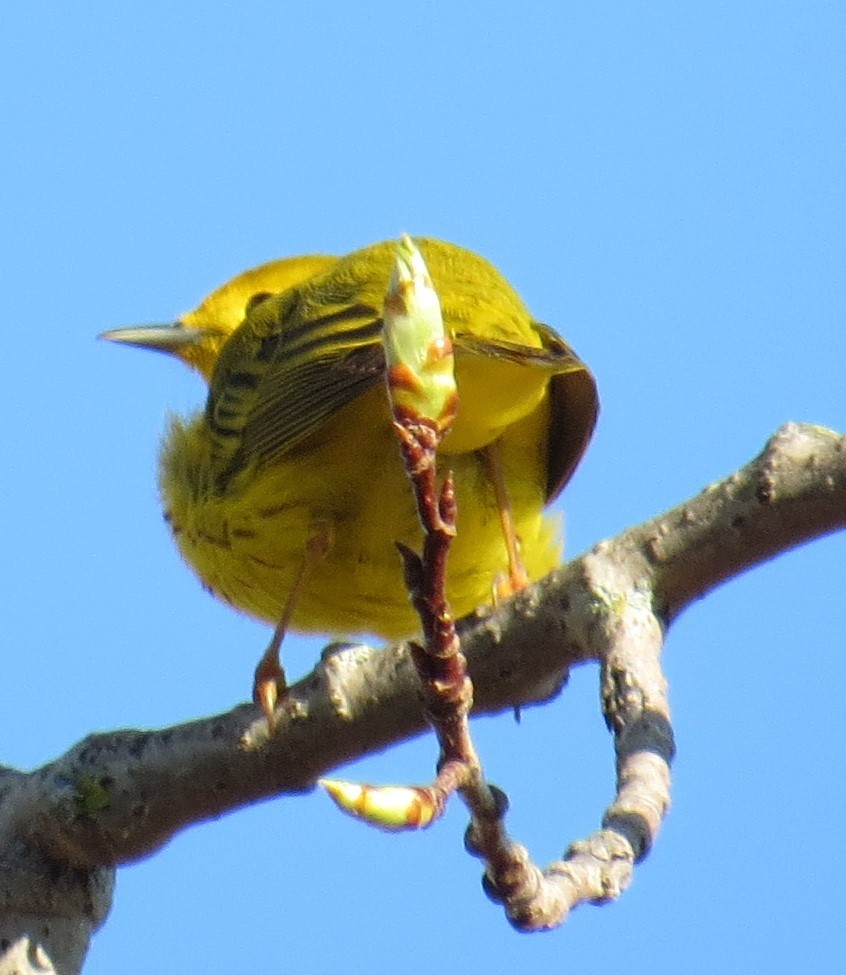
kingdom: Animalia
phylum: Chordata
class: Aves
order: Passeriformes
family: Parulidae
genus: Setophaga
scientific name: Setophaga petechia
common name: Yellow warbler
